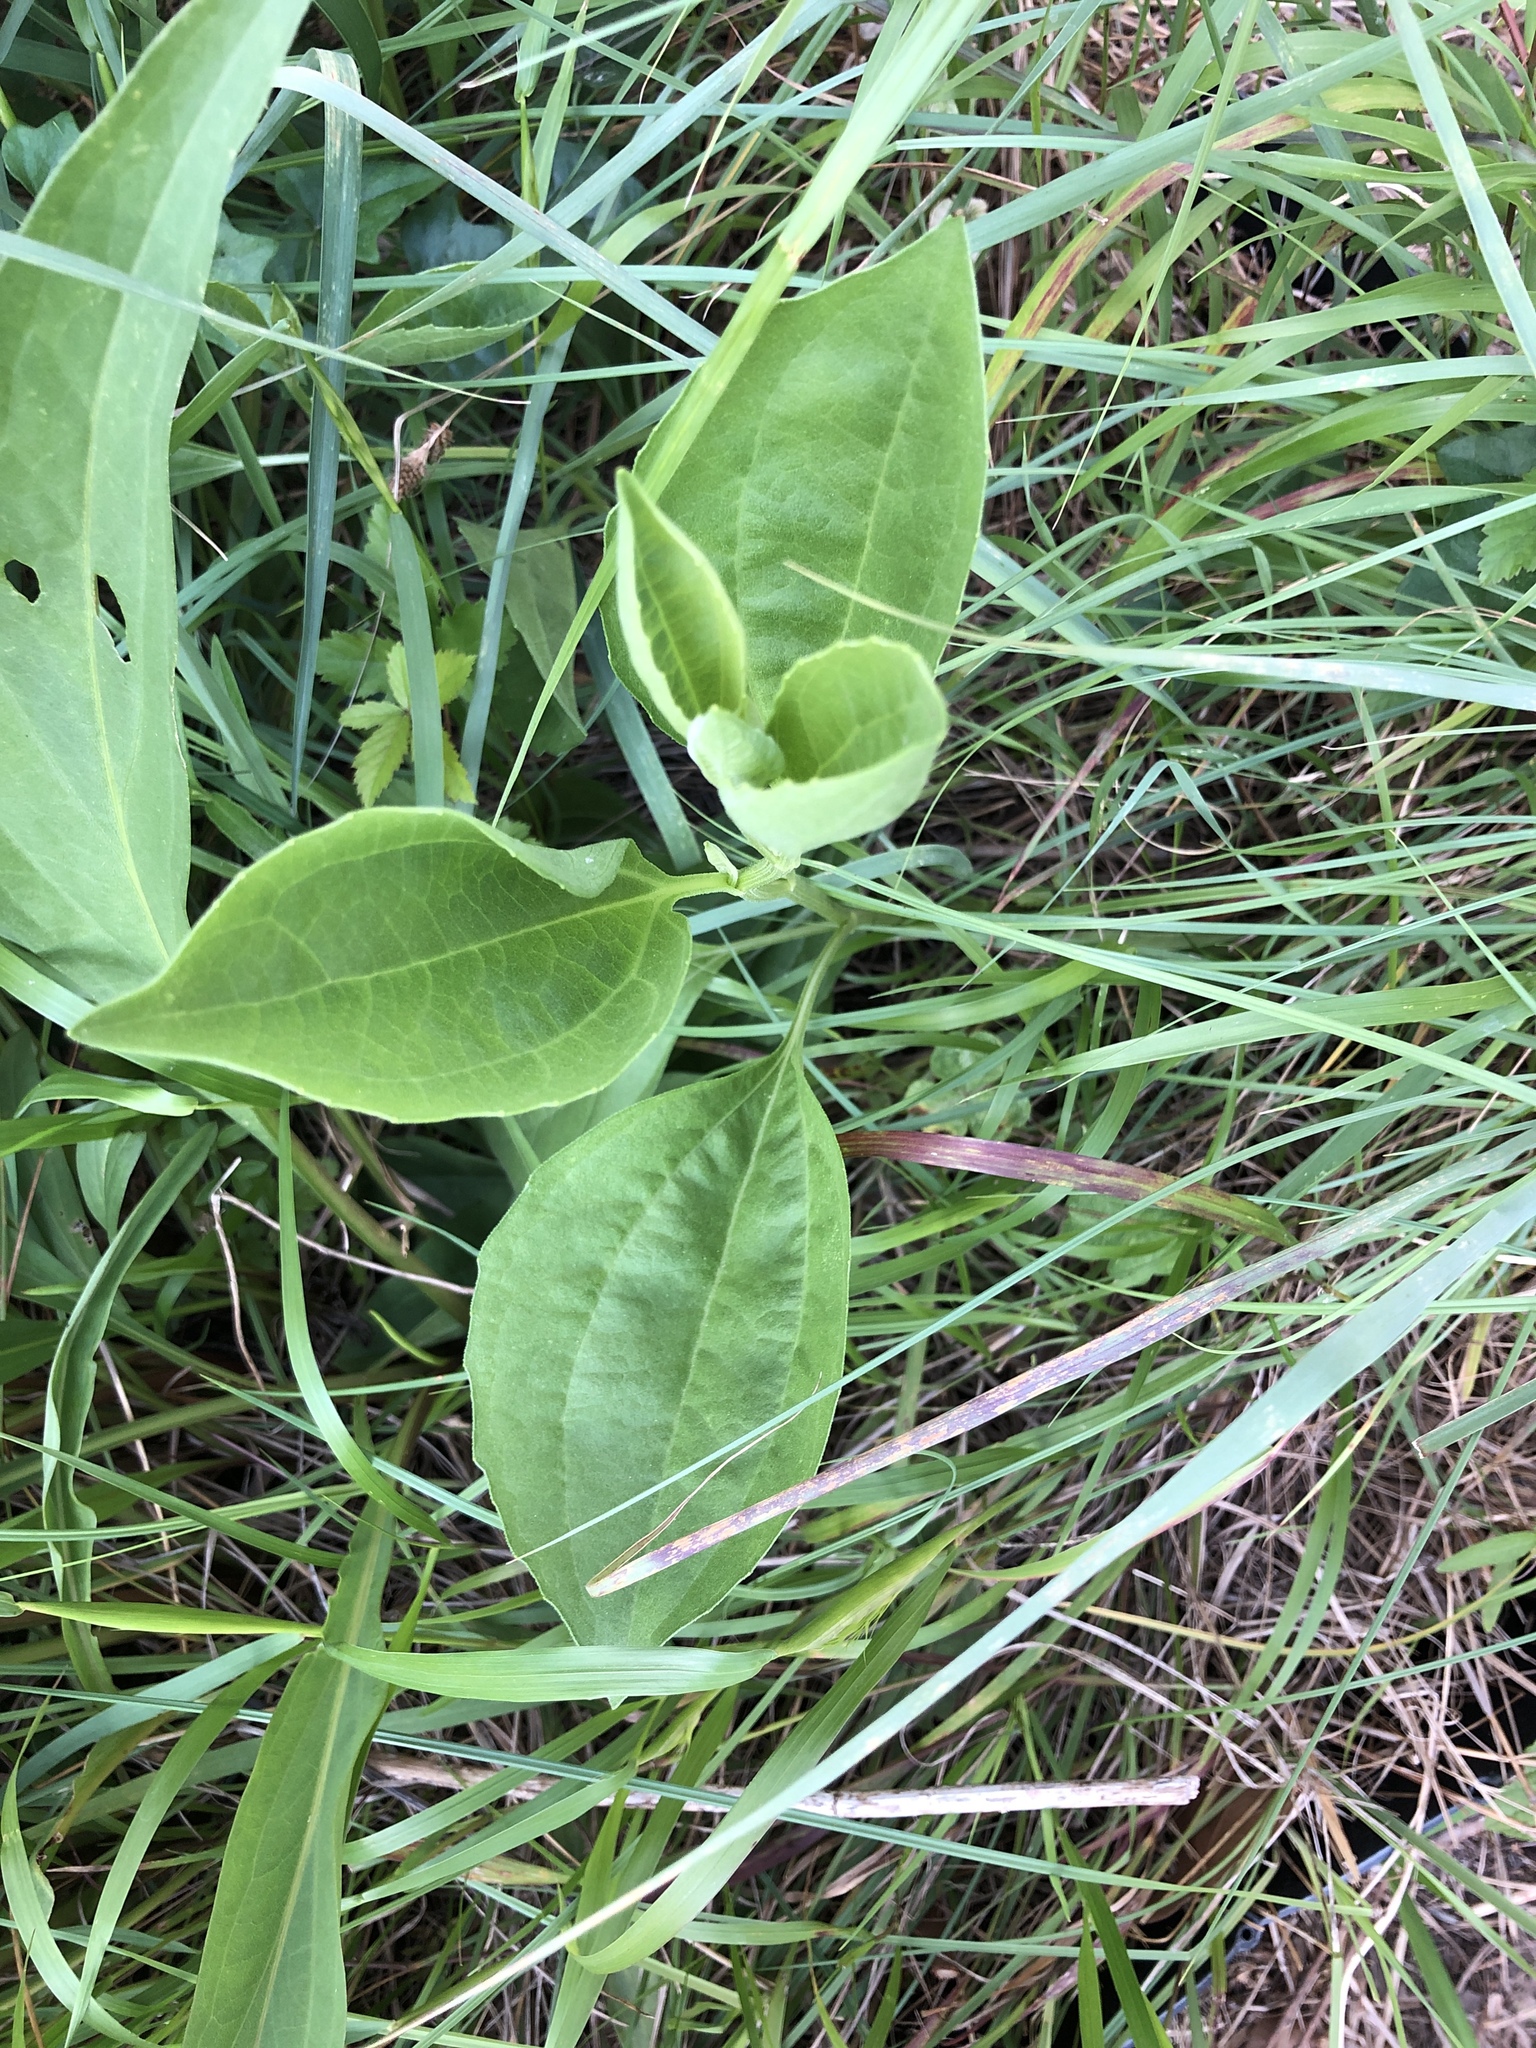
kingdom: Plantae
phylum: Tracheophyta
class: Magnoliopsida
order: Asterales
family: Asteraceae
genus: Rudbeckia
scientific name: Rudbeckia grandiflora
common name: Large-flowered coneflower
